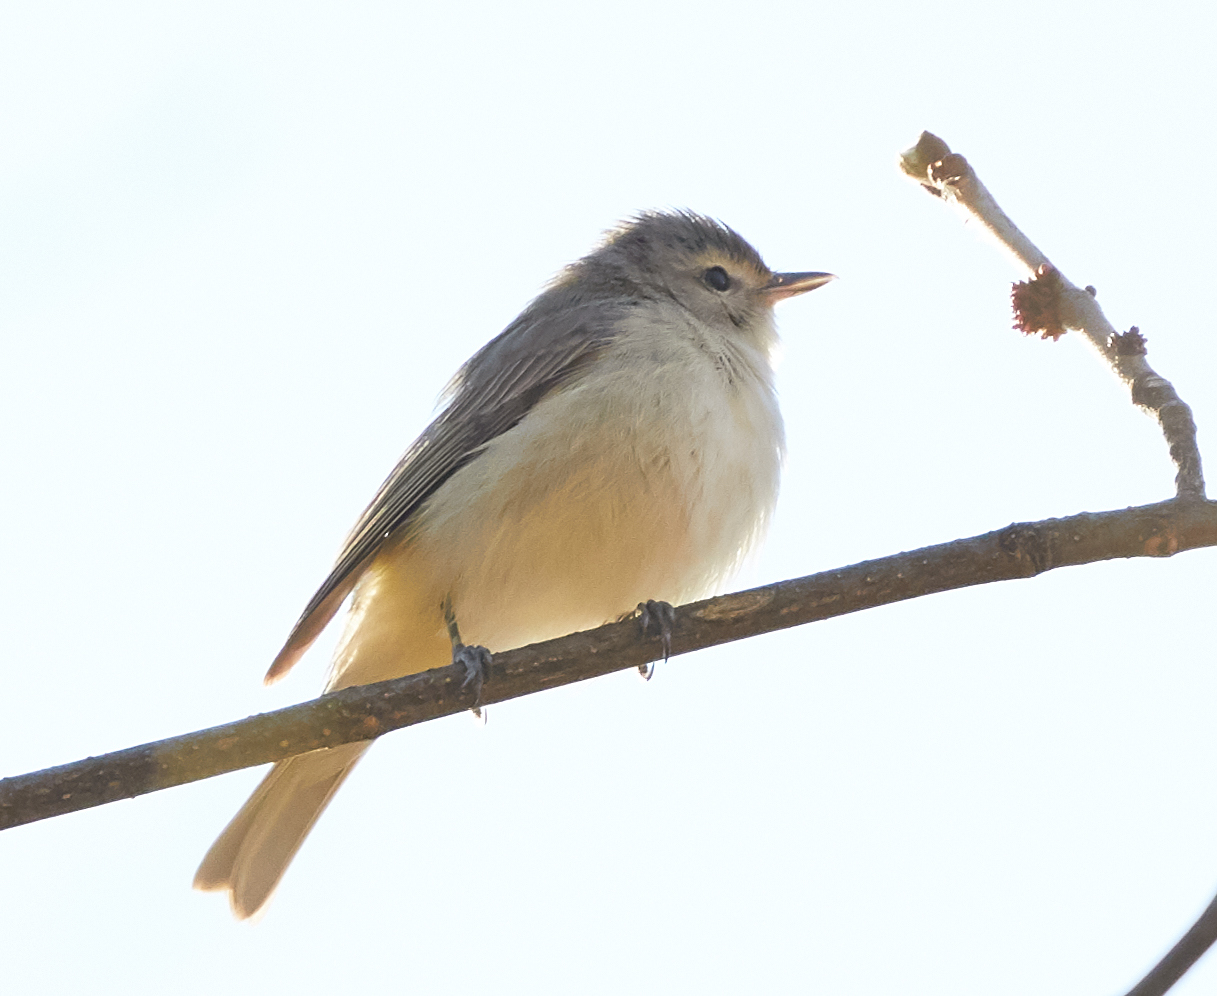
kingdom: Animalia
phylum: Chordata
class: Aves
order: Passeriformes
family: Vireonidae
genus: Vireo
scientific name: Vireo gilvus
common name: Warbling vireo
